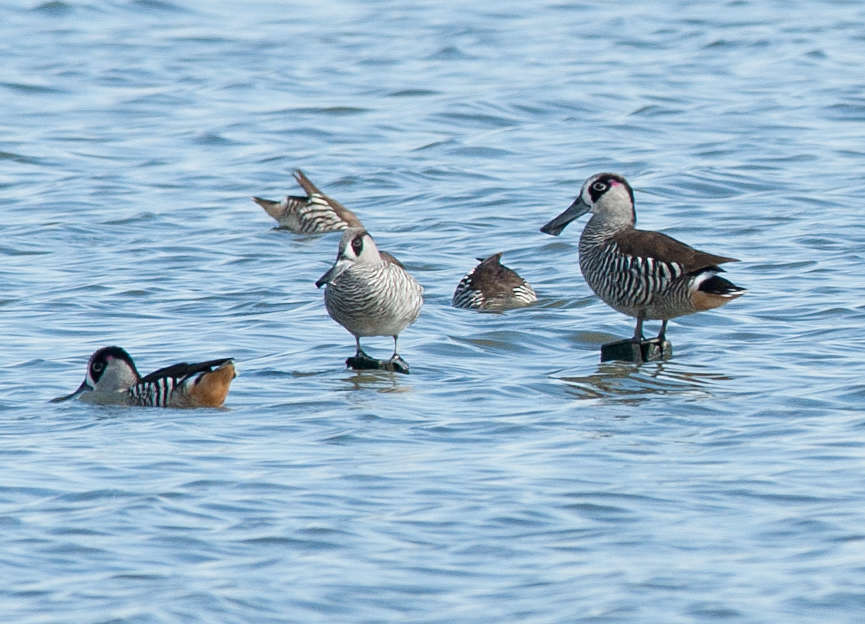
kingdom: Animalia
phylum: Chordata
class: Aves
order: Anseriformes
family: Anatidae
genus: Malacorhynchus
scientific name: Malacorhynchus membranaceus
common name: Pink-eared duck
